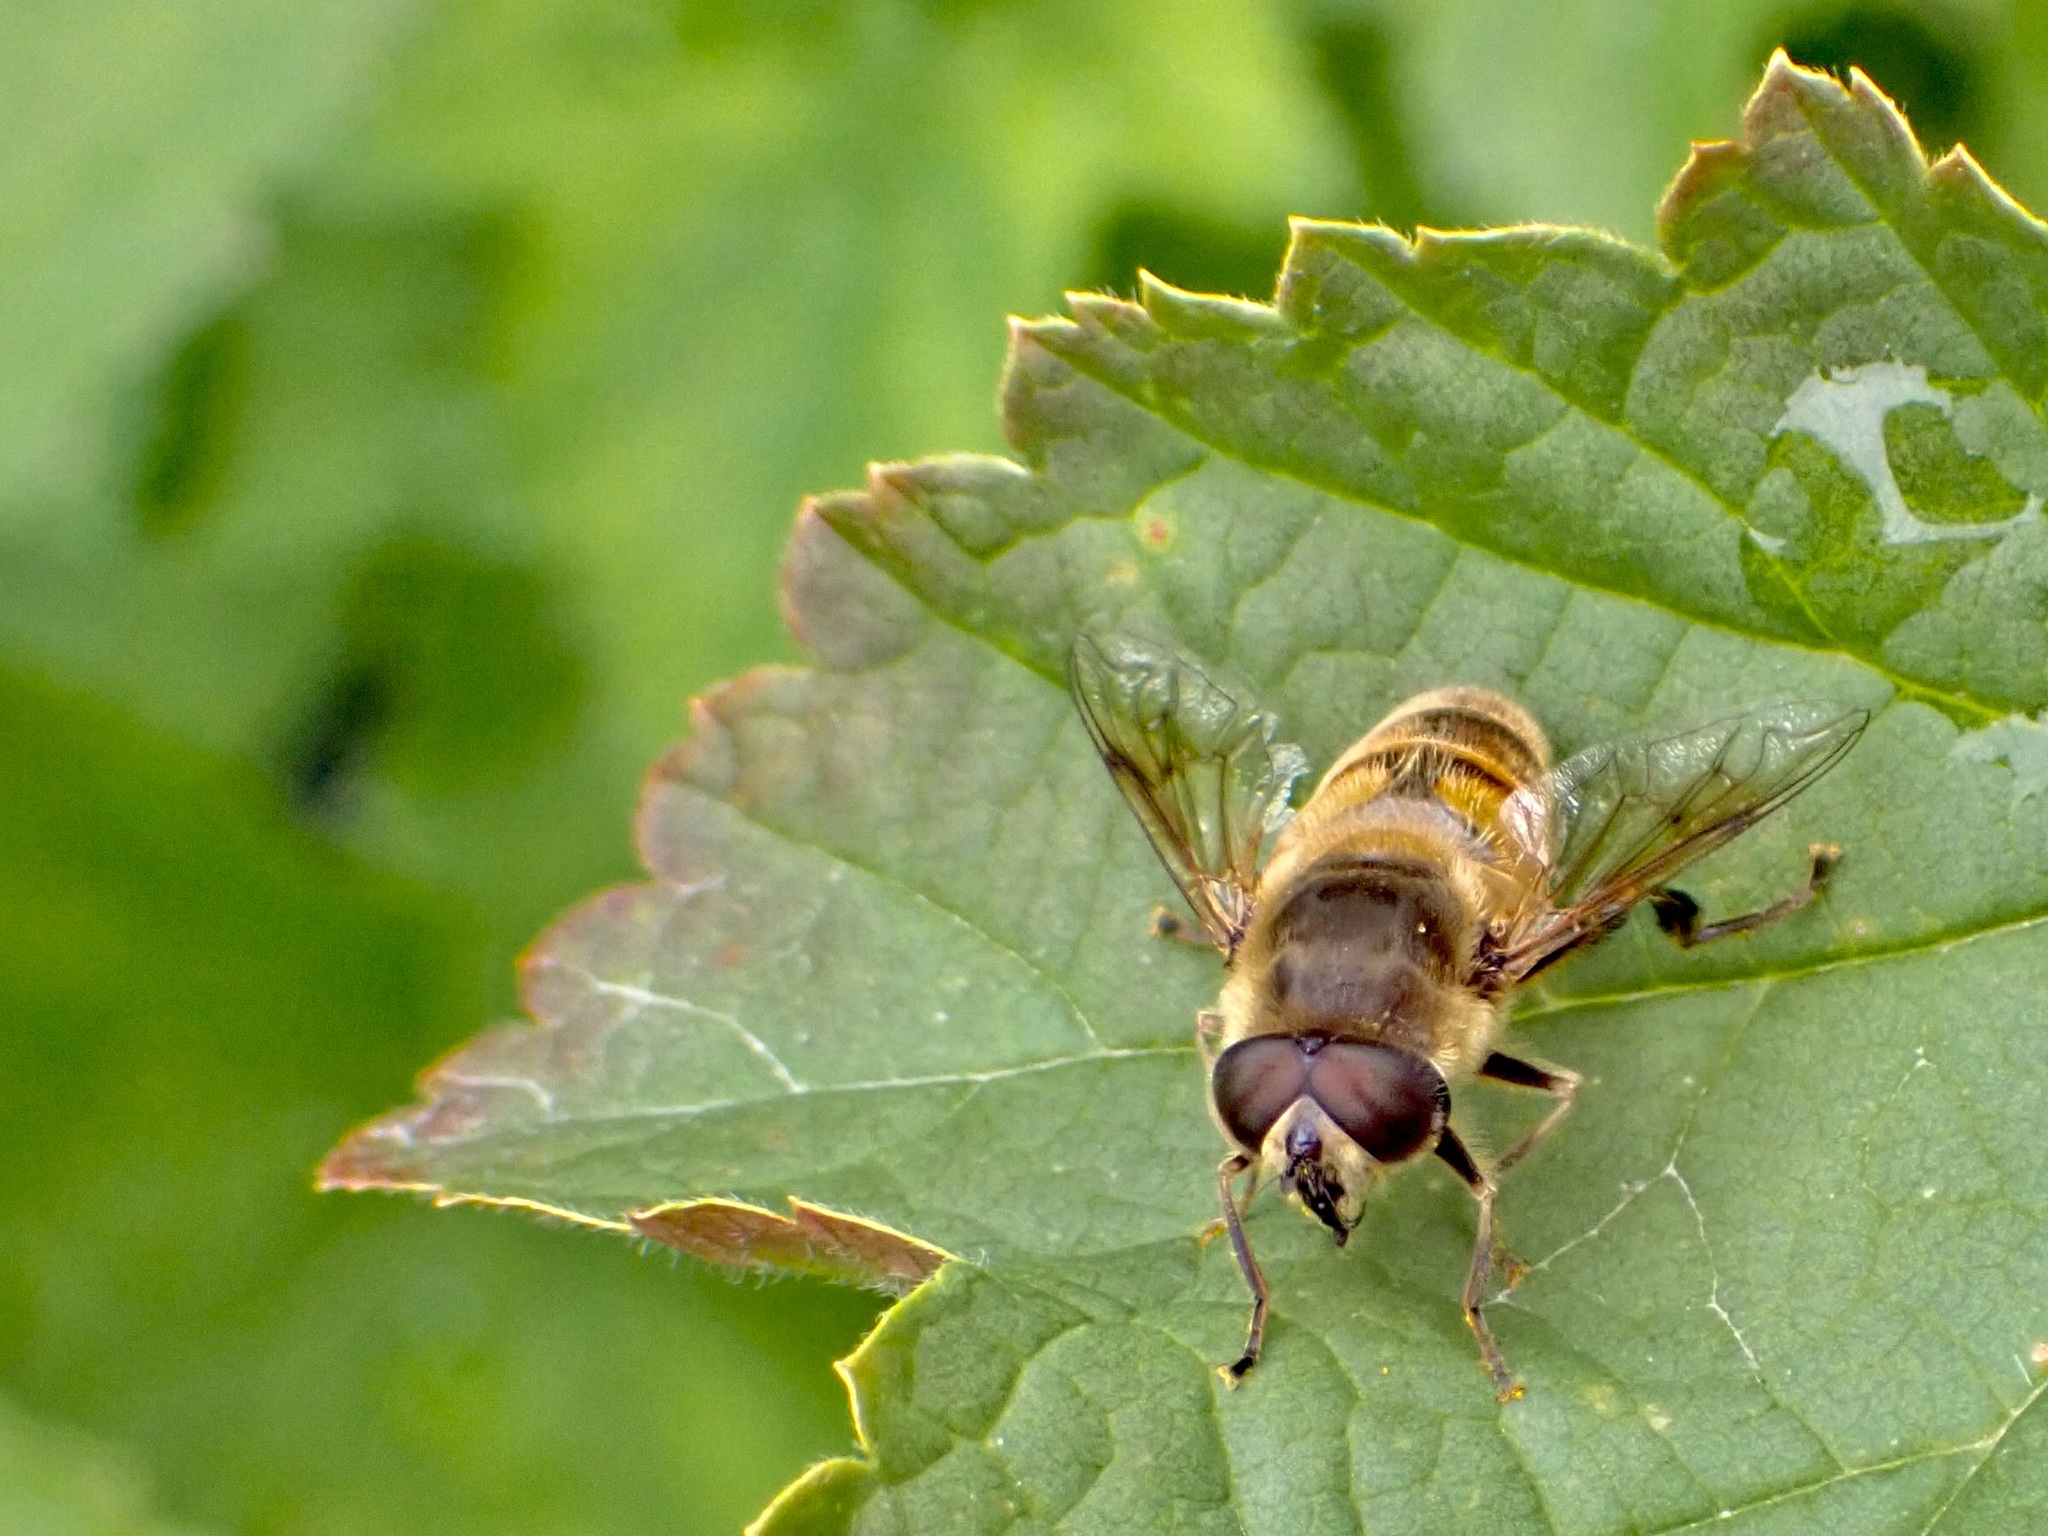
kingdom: Animalia
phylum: Arthropoda
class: Insecta
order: Diptera
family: Syrphidae
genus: Eristalis
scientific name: Eristalis tenax
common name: Drone fly
